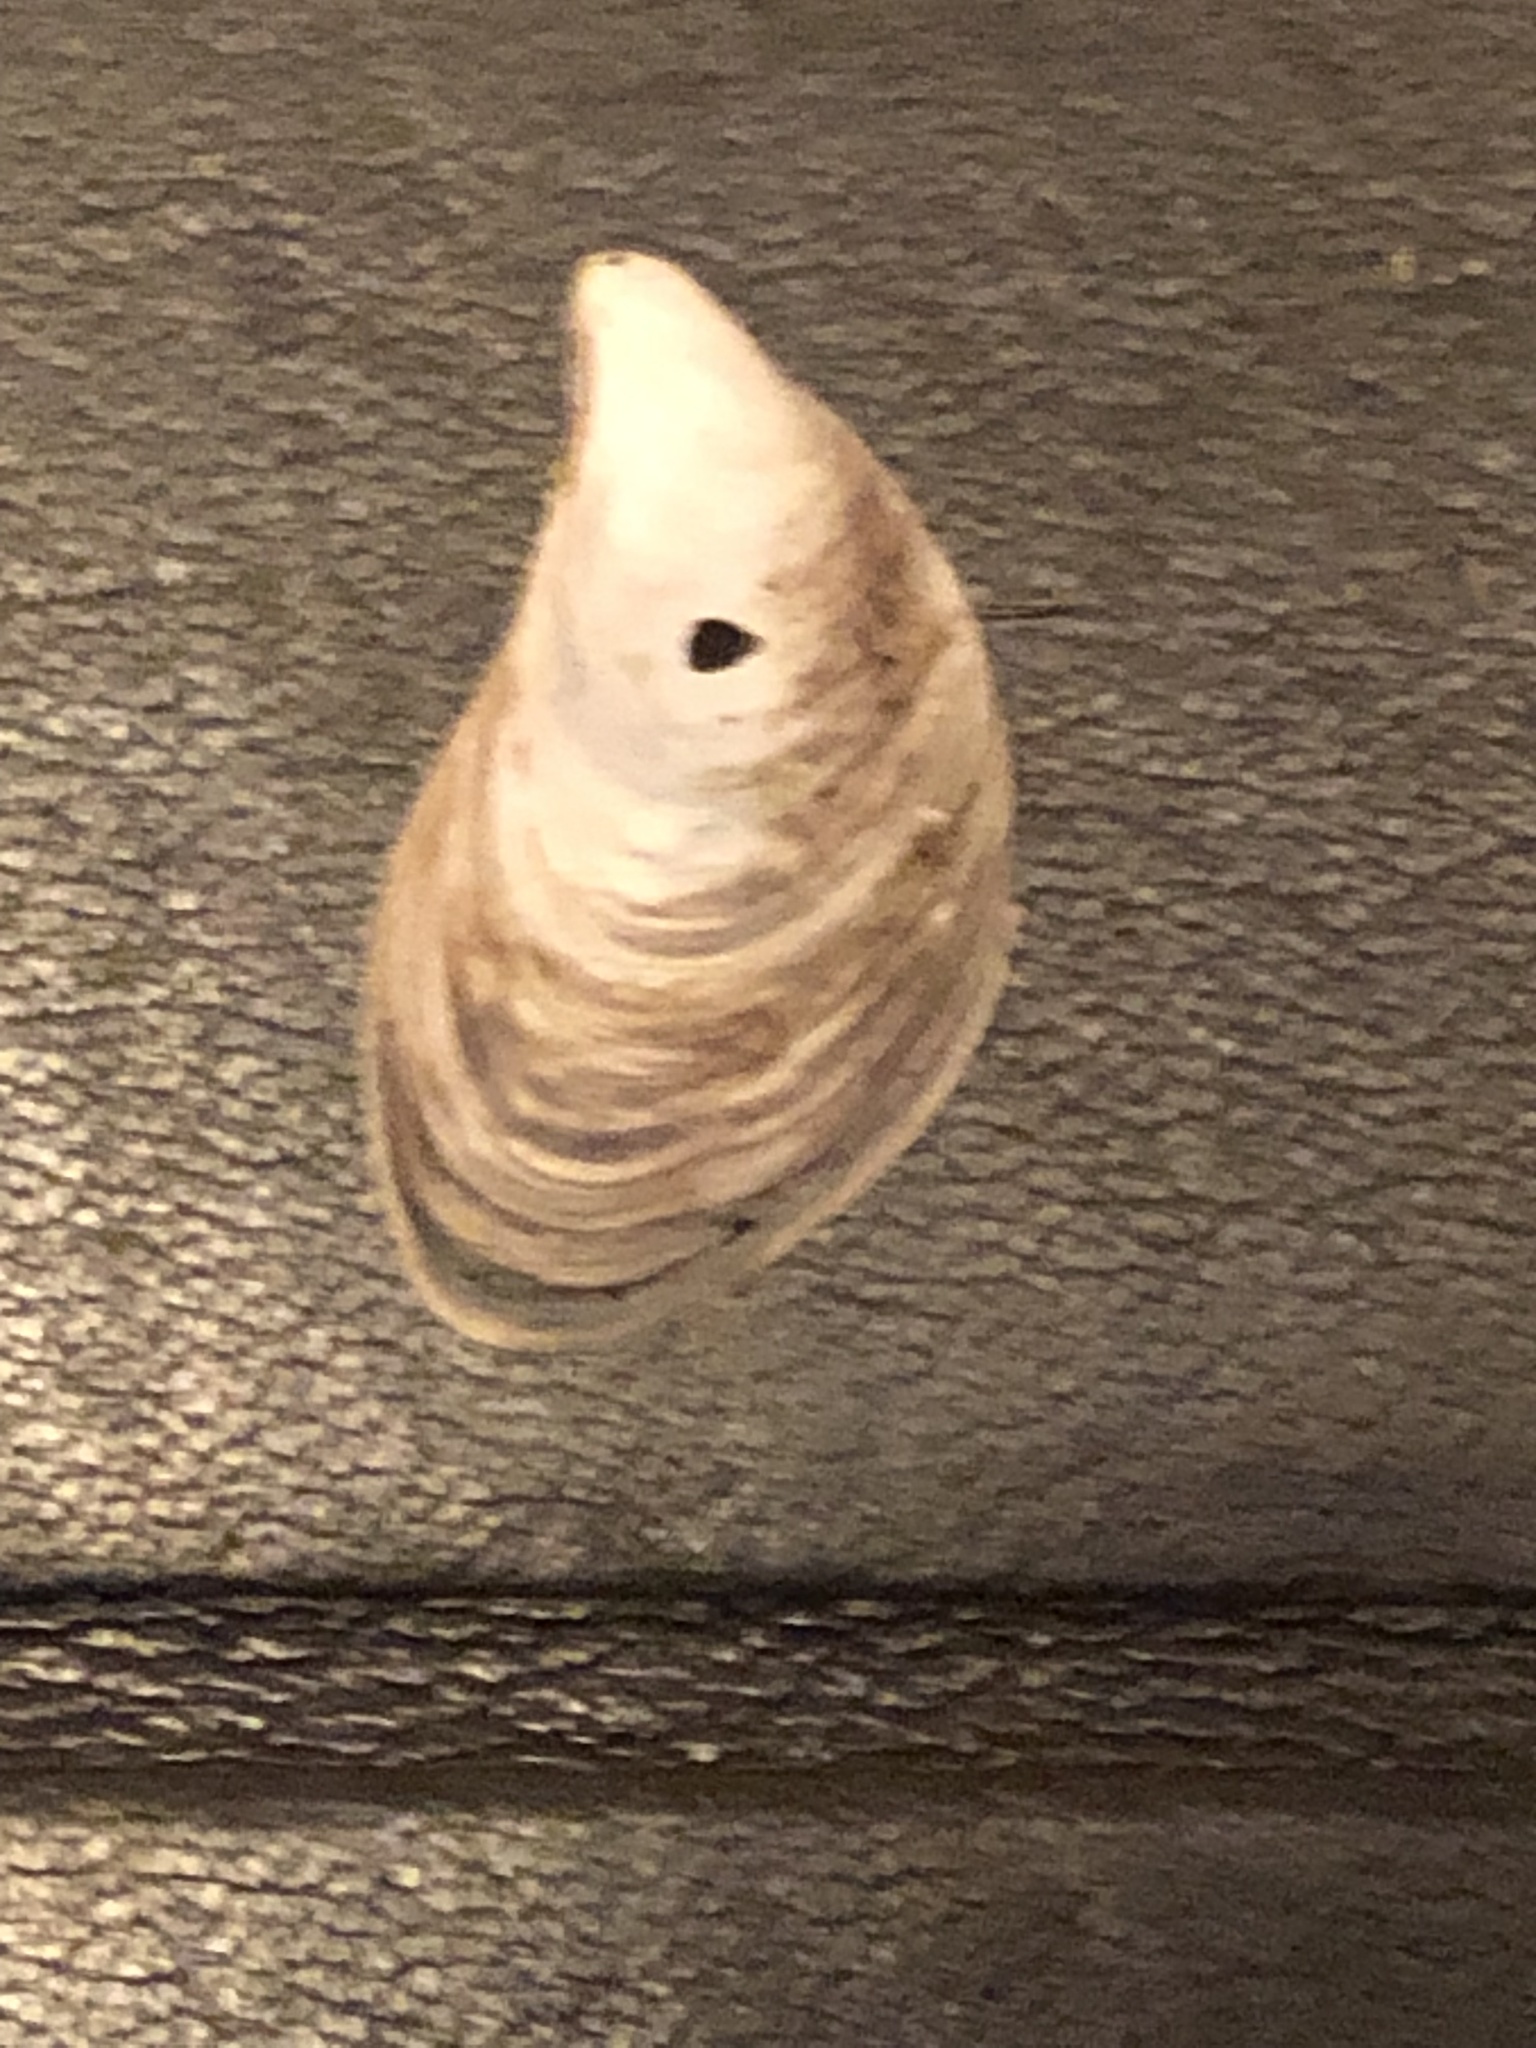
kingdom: Animalia
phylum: Mollusca
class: Bivalvia
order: Myida
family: Dreissenidae
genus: Dreissena
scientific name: Dreissena bugensis
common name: Quagga mussel
